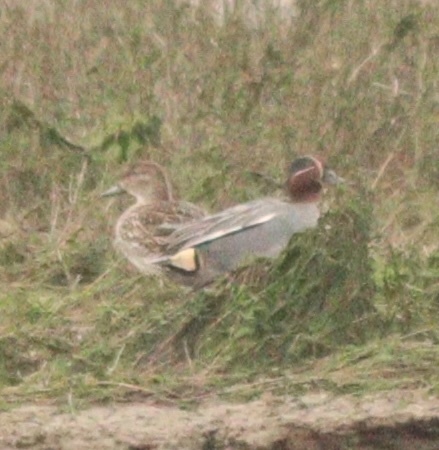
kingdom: Animalia
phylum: Chordata
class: Aves
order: Anseriformes
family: Anatidae
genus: Anas
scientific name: Anas crecca
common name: Eurasian teal
